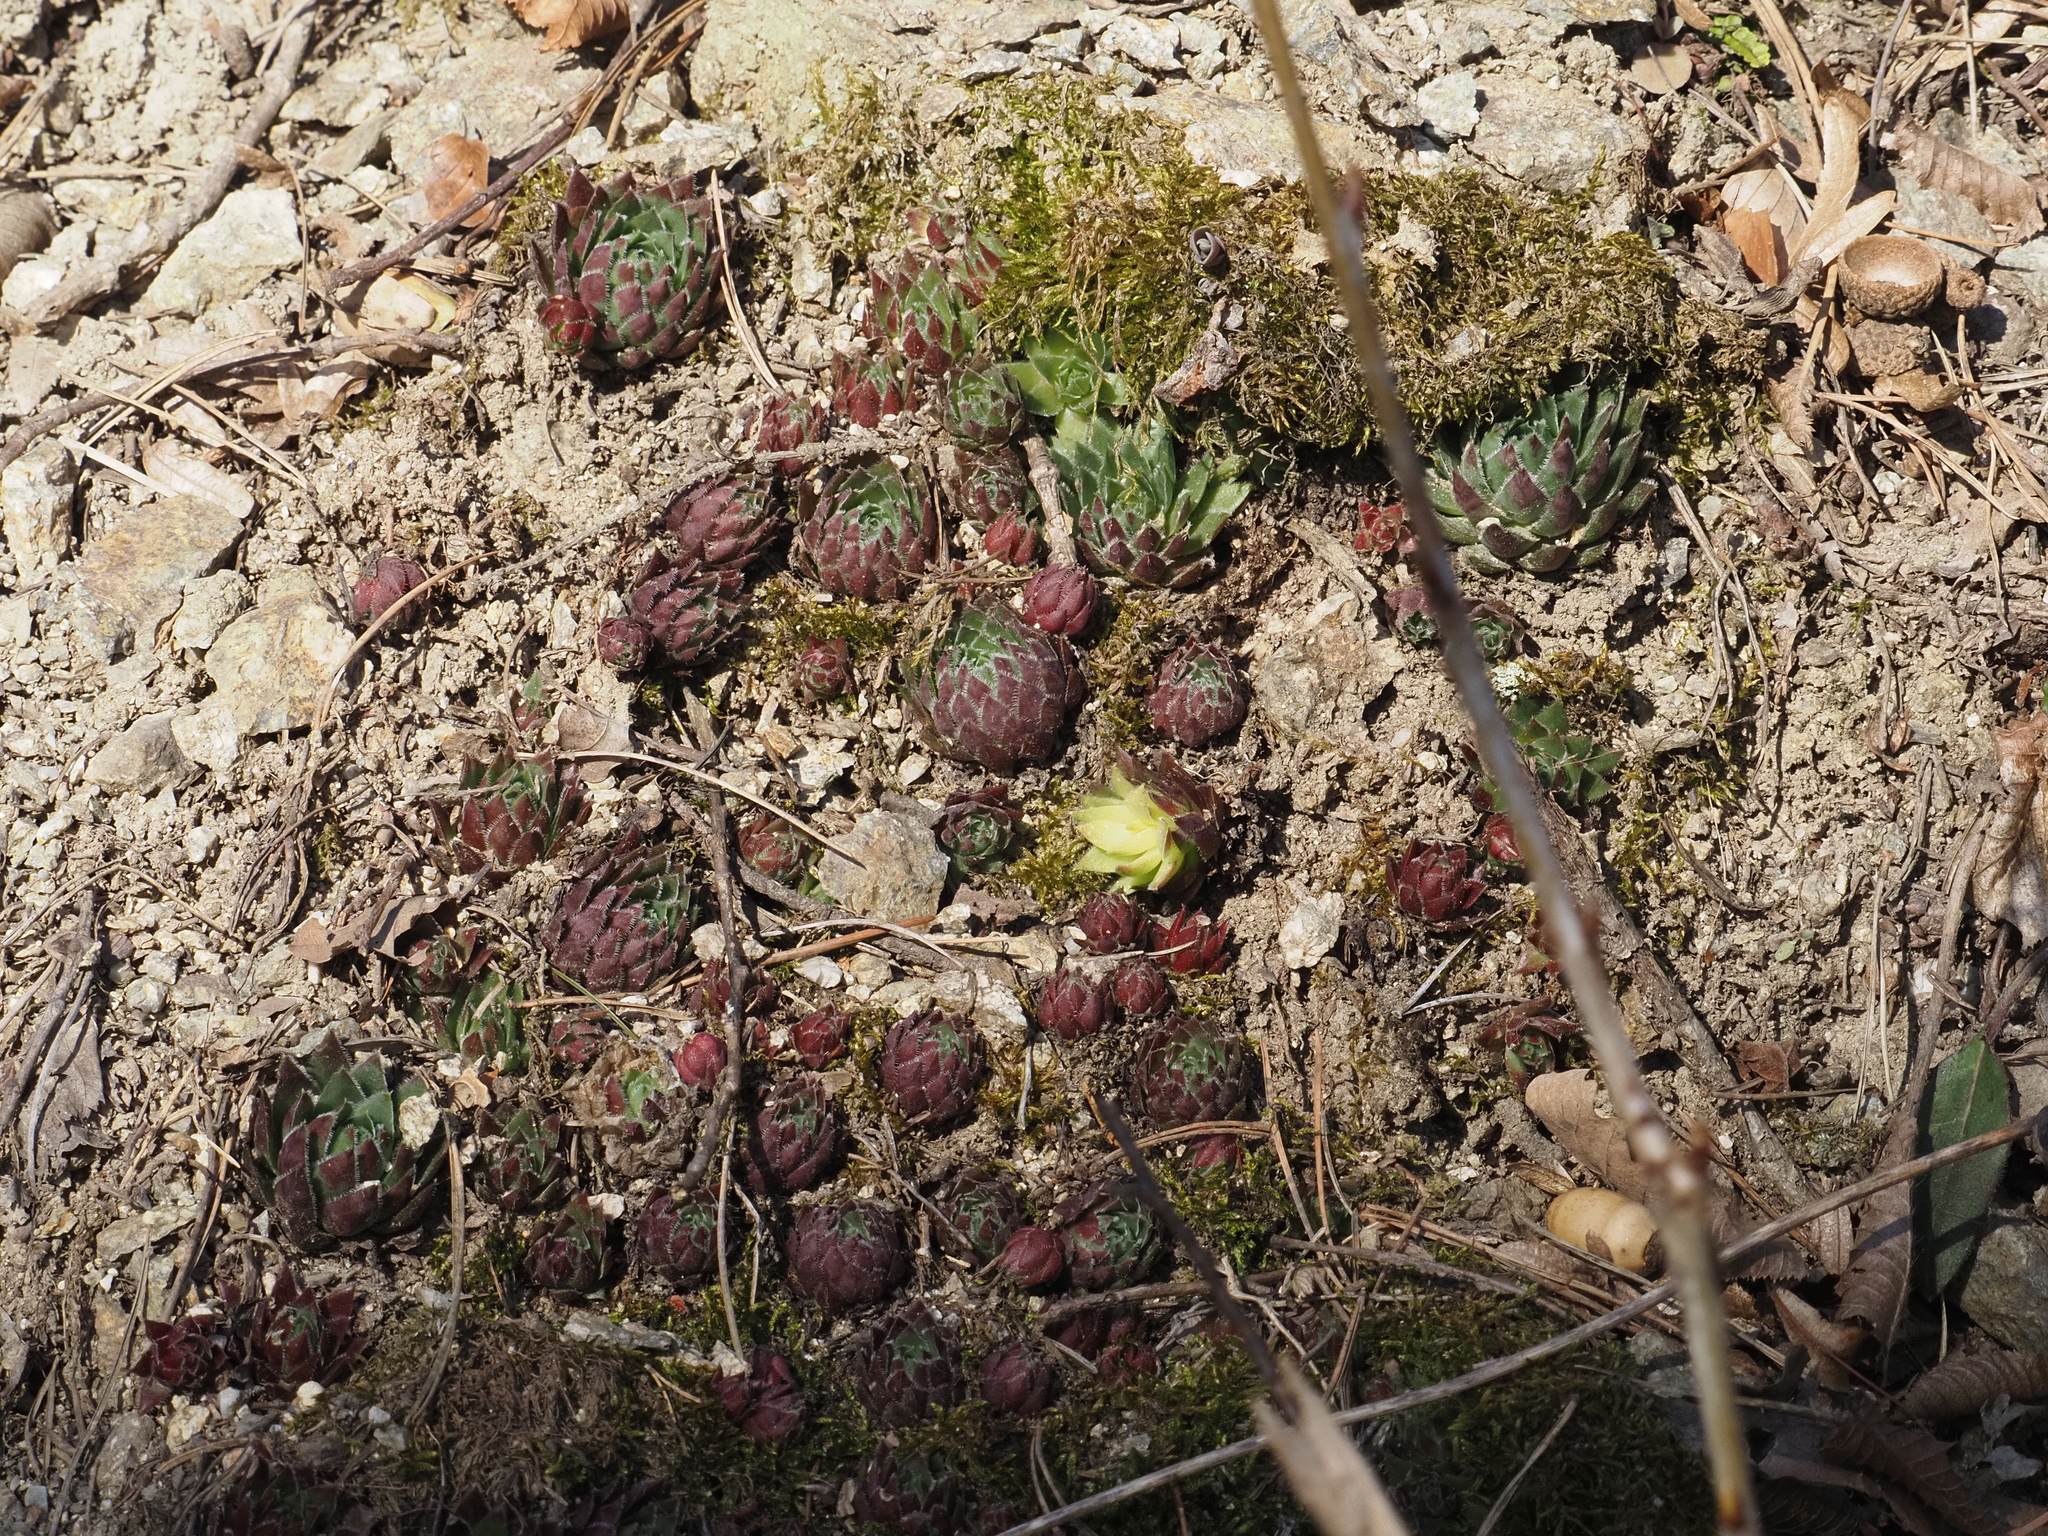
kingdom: Plantae
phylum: Tracheophyta
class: Magnoliopsida
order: Saxifragales
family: Crassulaceae
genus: Sempervivum
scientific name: Sempervivum globiferum
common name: Rolling hen-and-chicks
